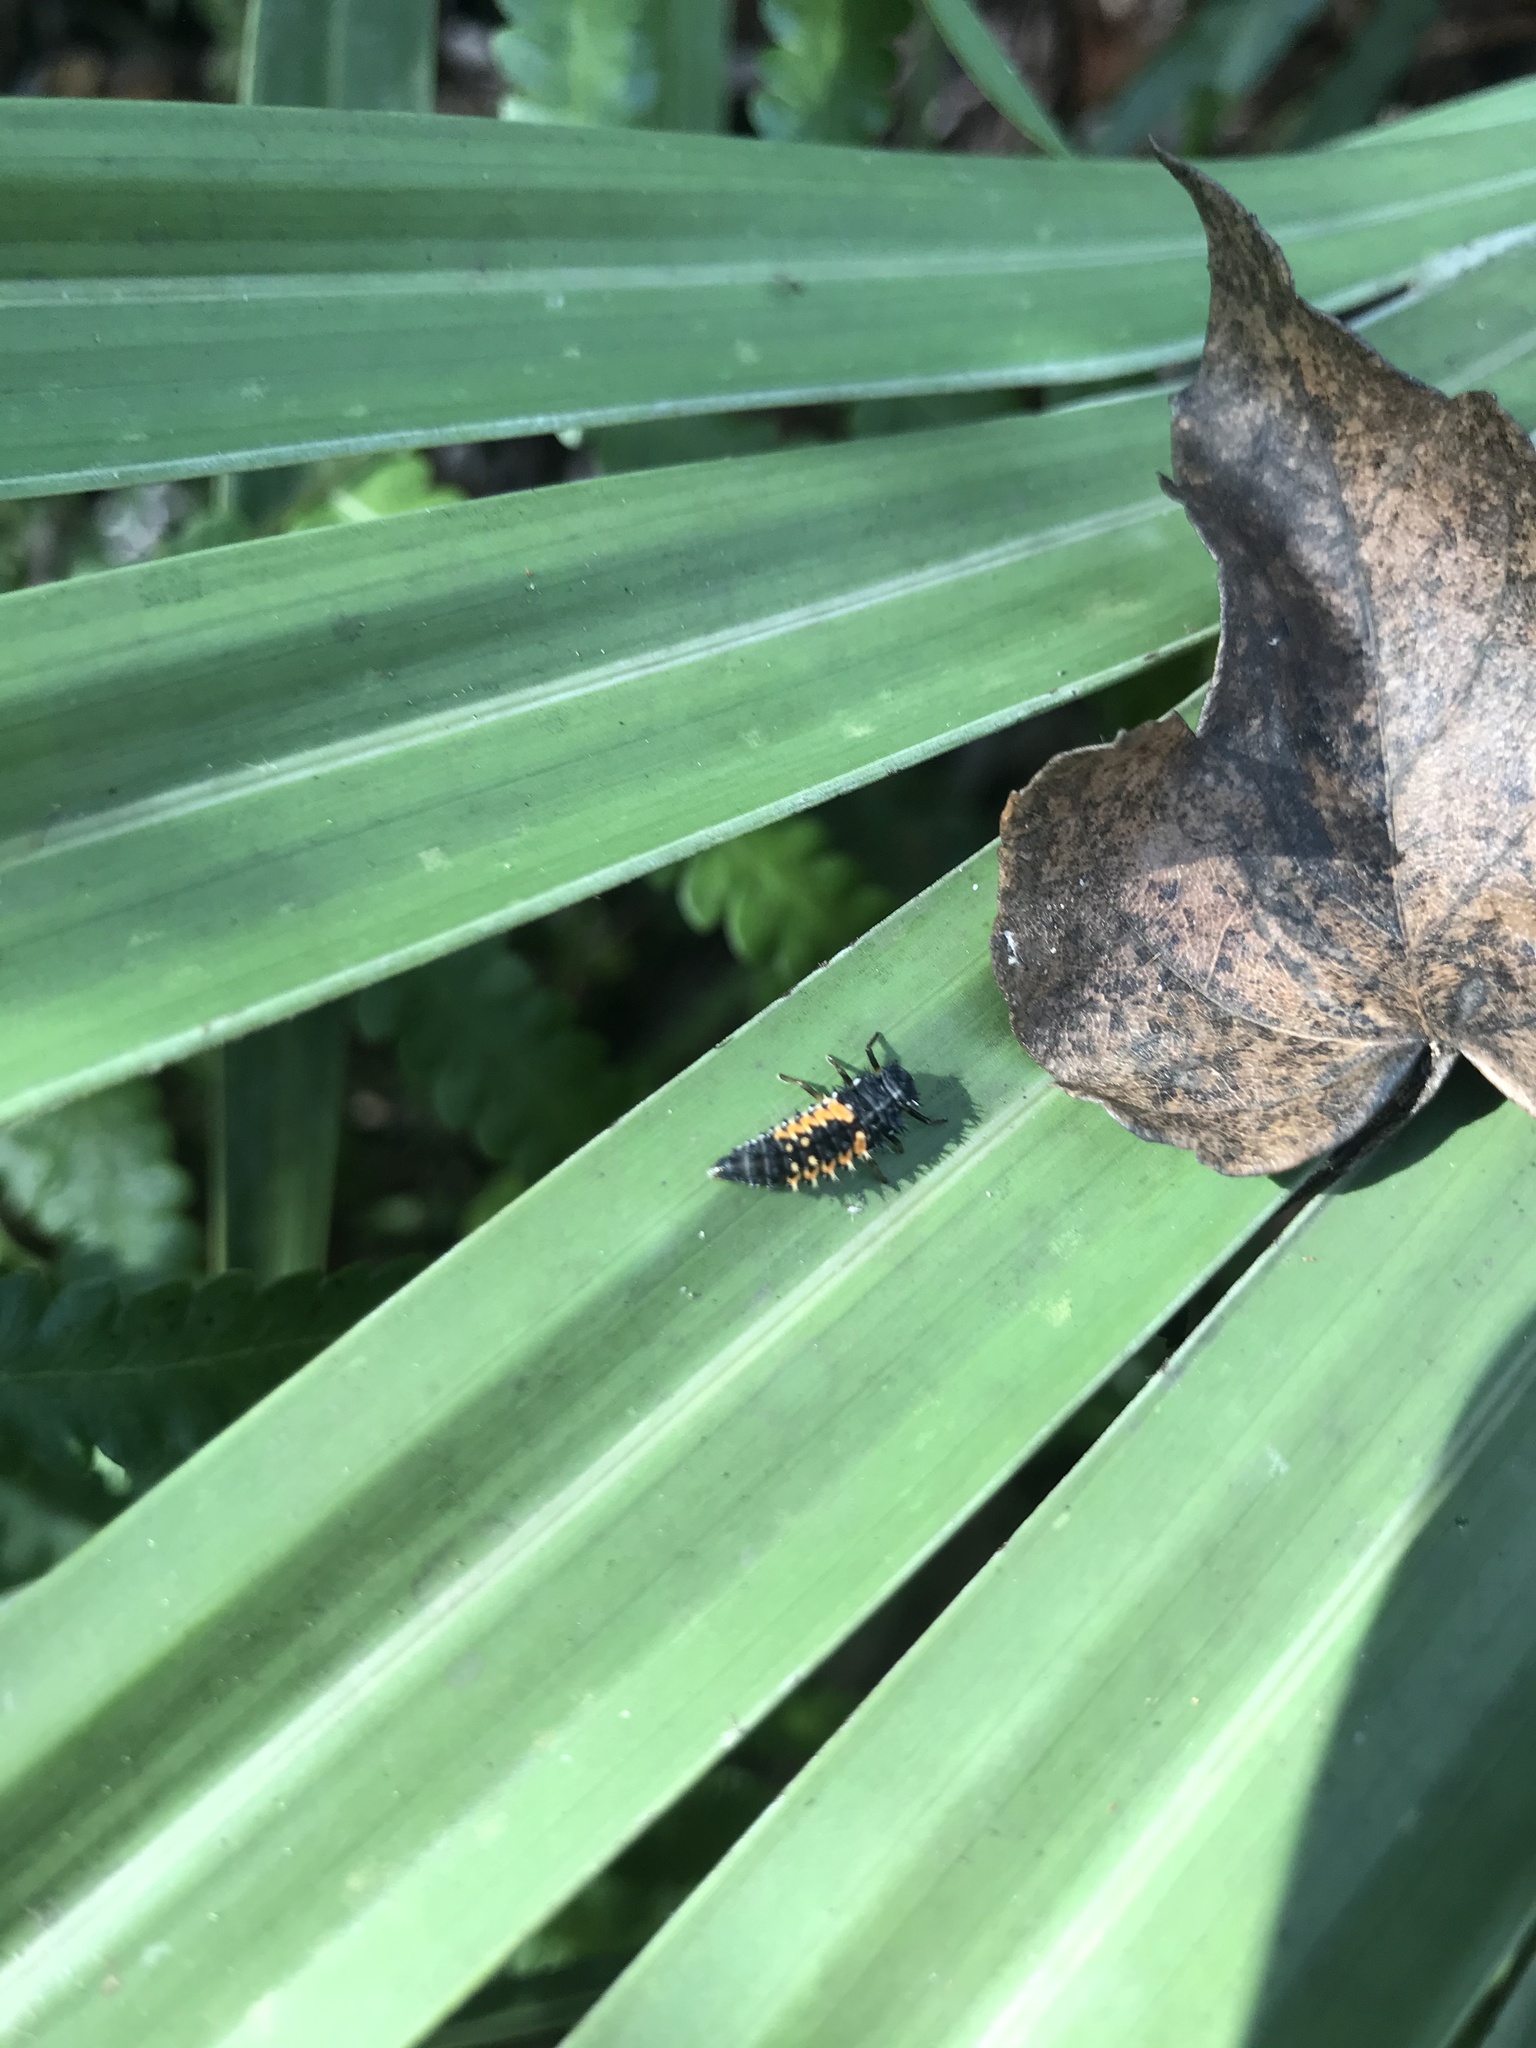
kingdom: Animalia
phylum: Arthropoda
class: Insecta
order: Coleoptera
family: Coccinellidae
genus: Harmonia
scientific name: Harmonia axyridis
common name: Harlequin ladybird
